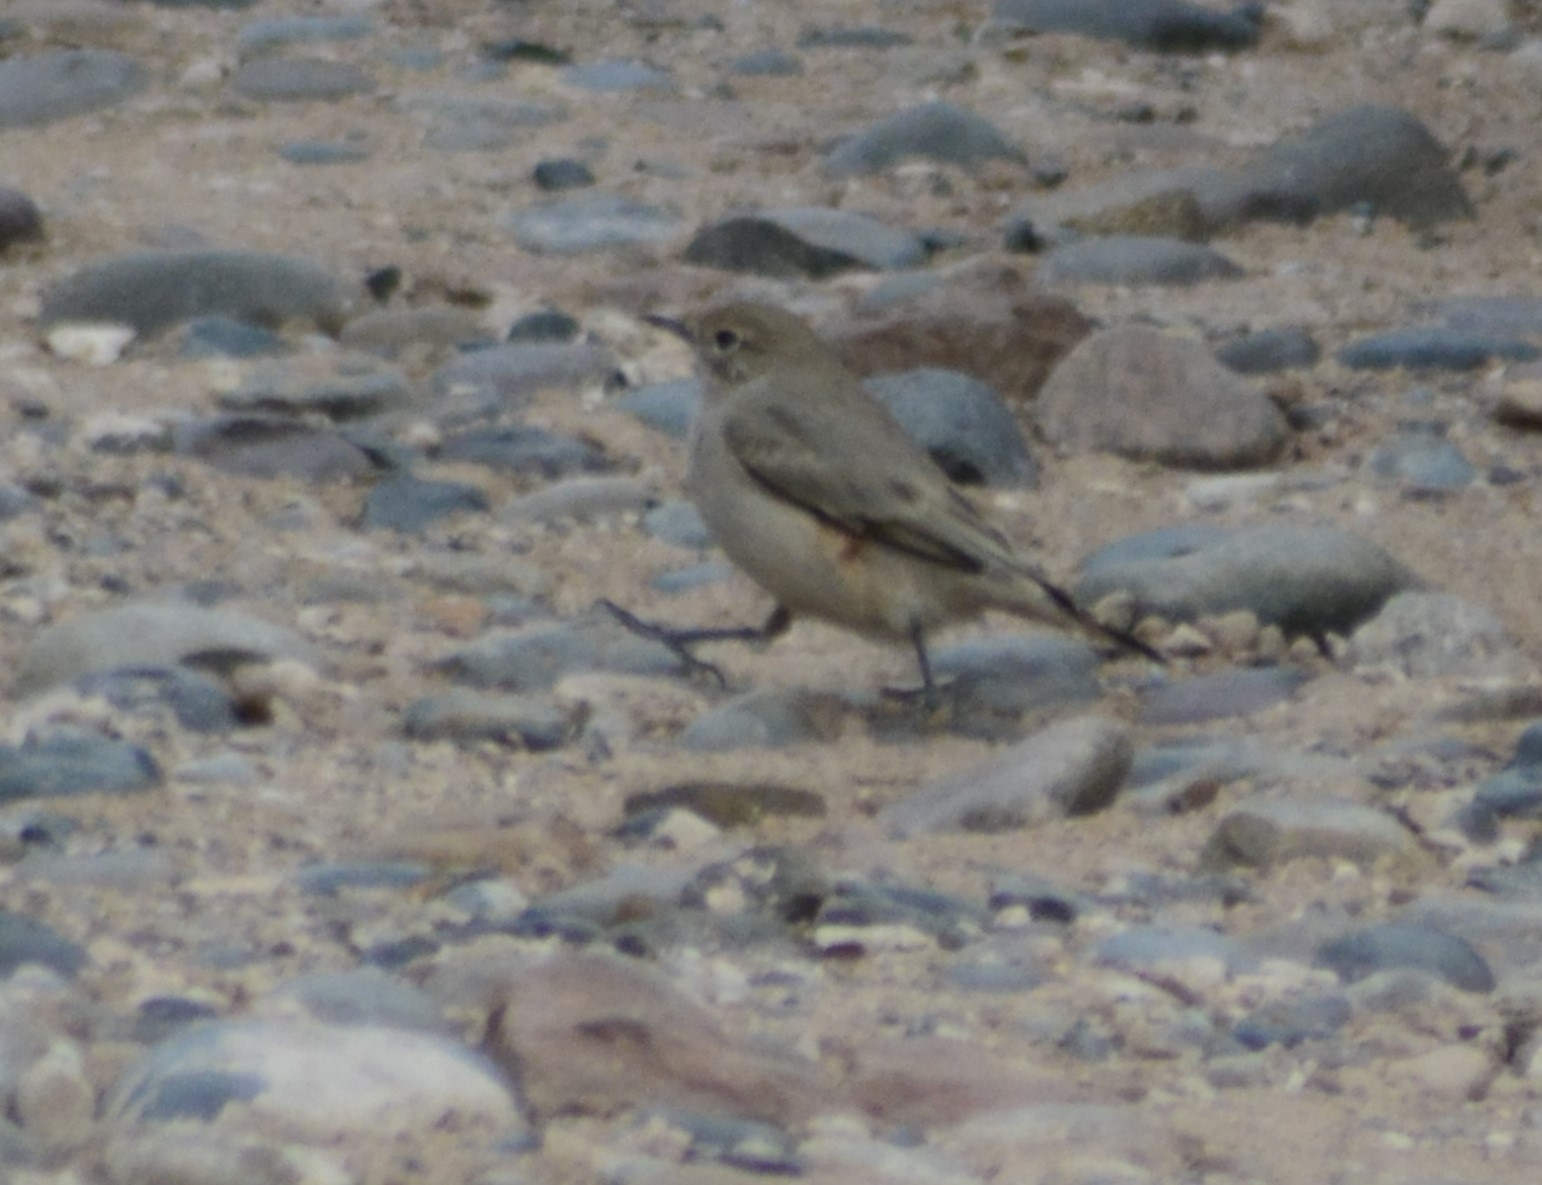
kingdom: Animalia
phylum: Chordata
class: Aves
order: Passeriformes
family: Furnariidae
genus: Geositta
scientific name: Geositta rufipennis
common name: Rufous-banded miner
